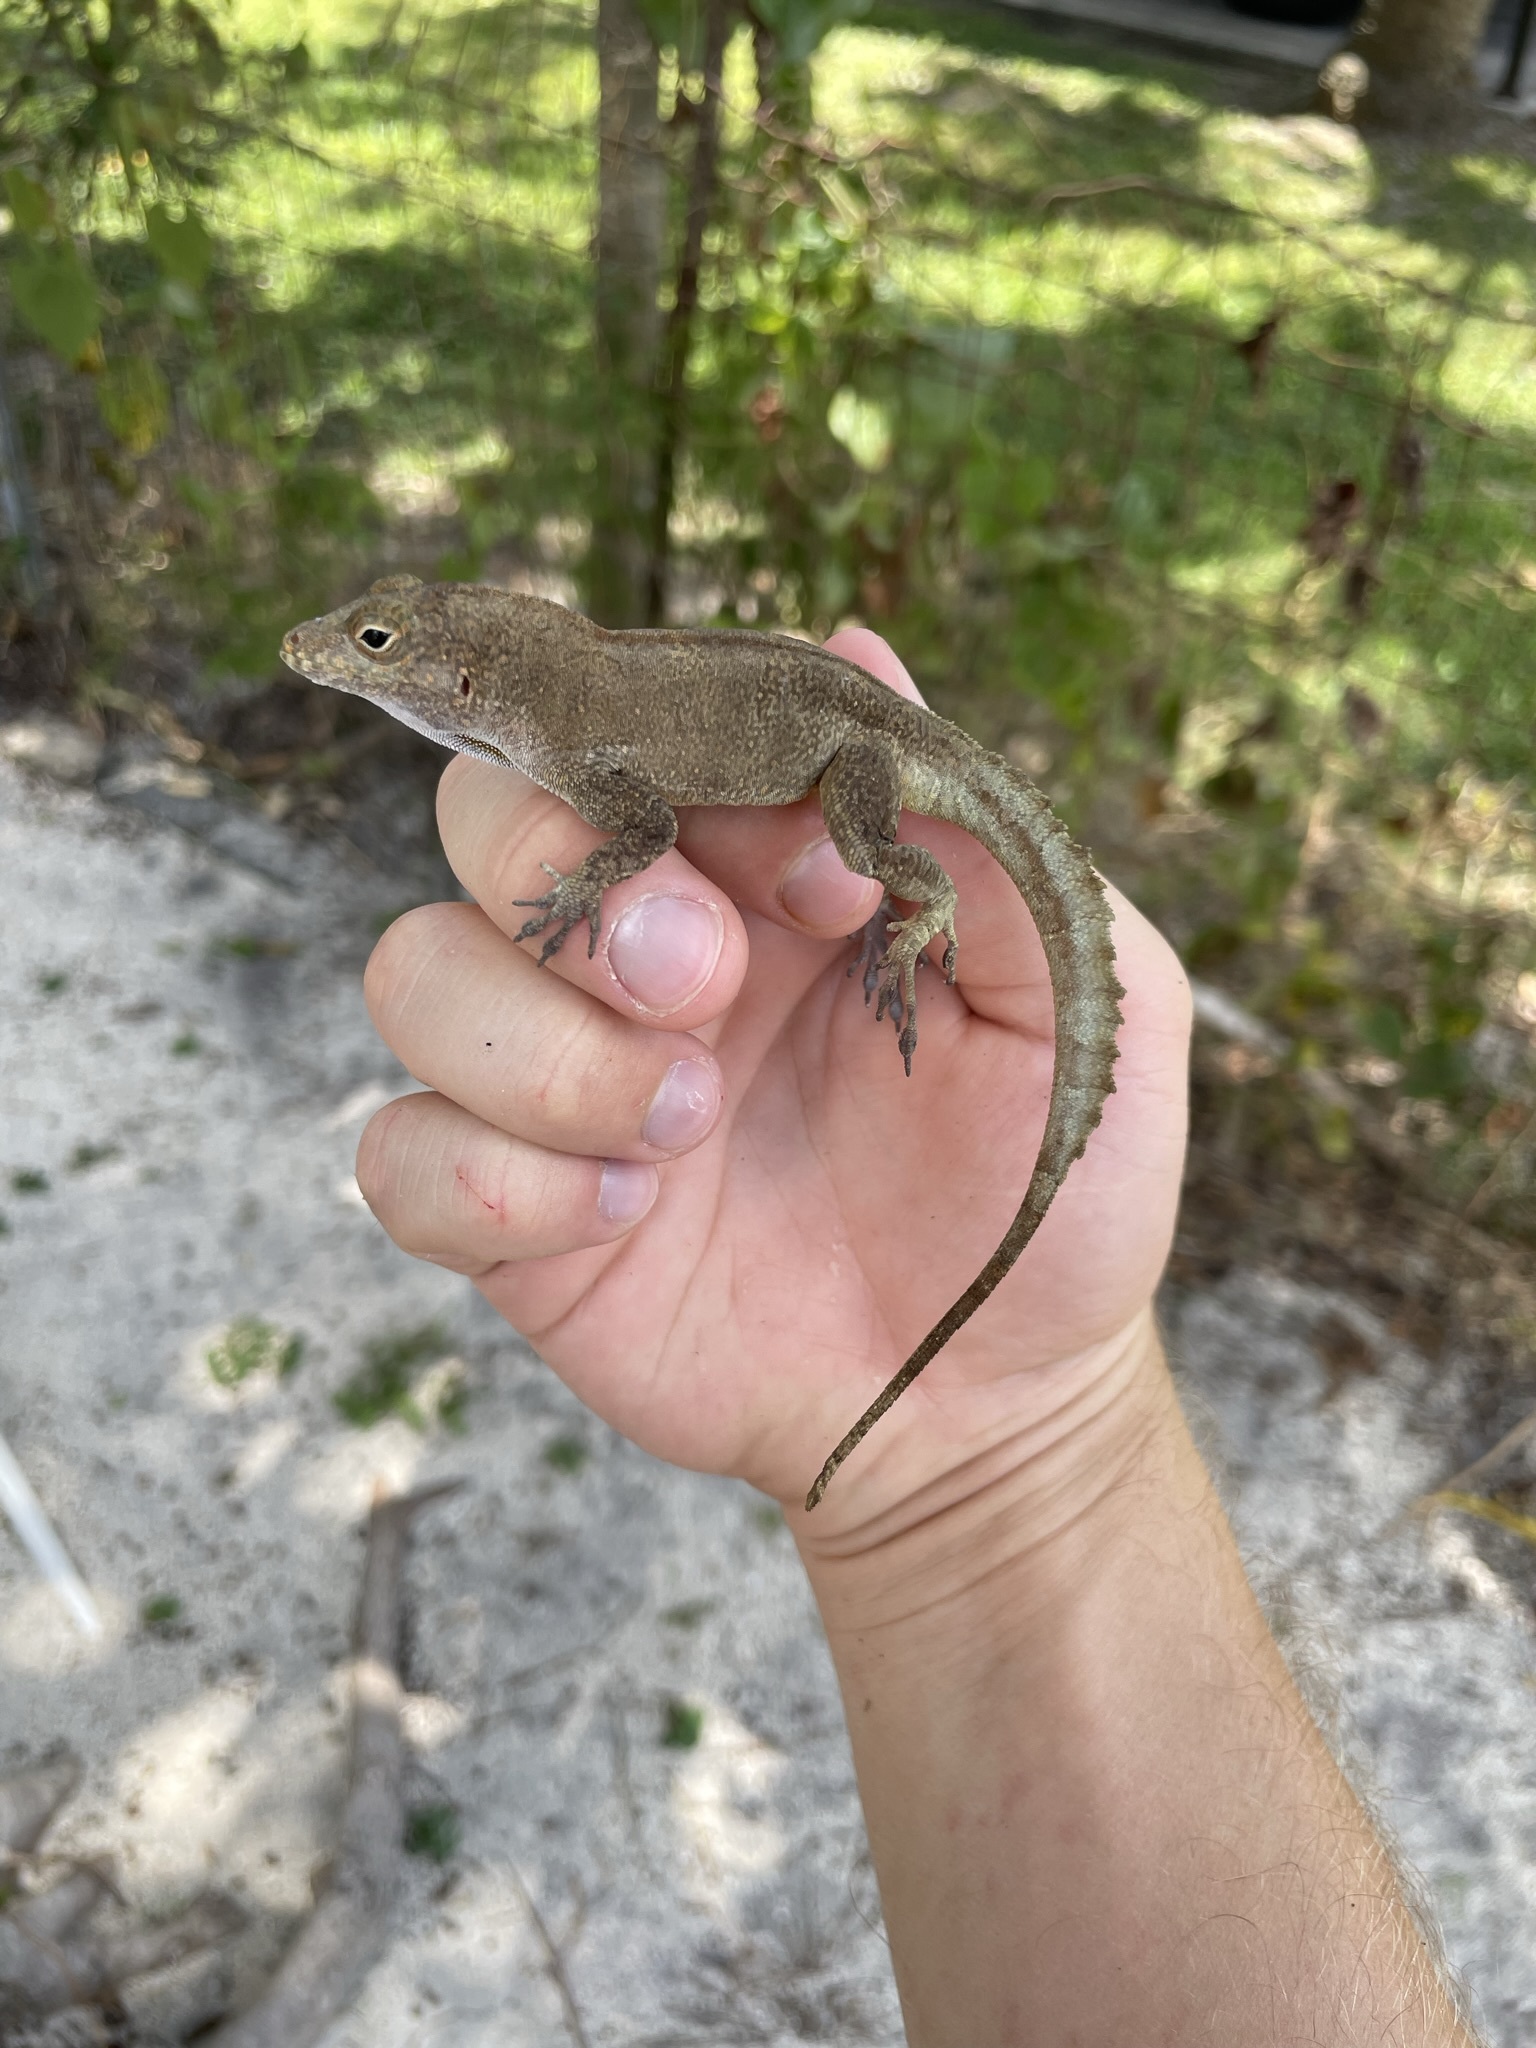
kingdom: Animalia
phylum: Chordata
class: Squamata
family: Dactyloidae
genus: Anolis
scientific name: Anolis cristatellus
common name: Crested anole
